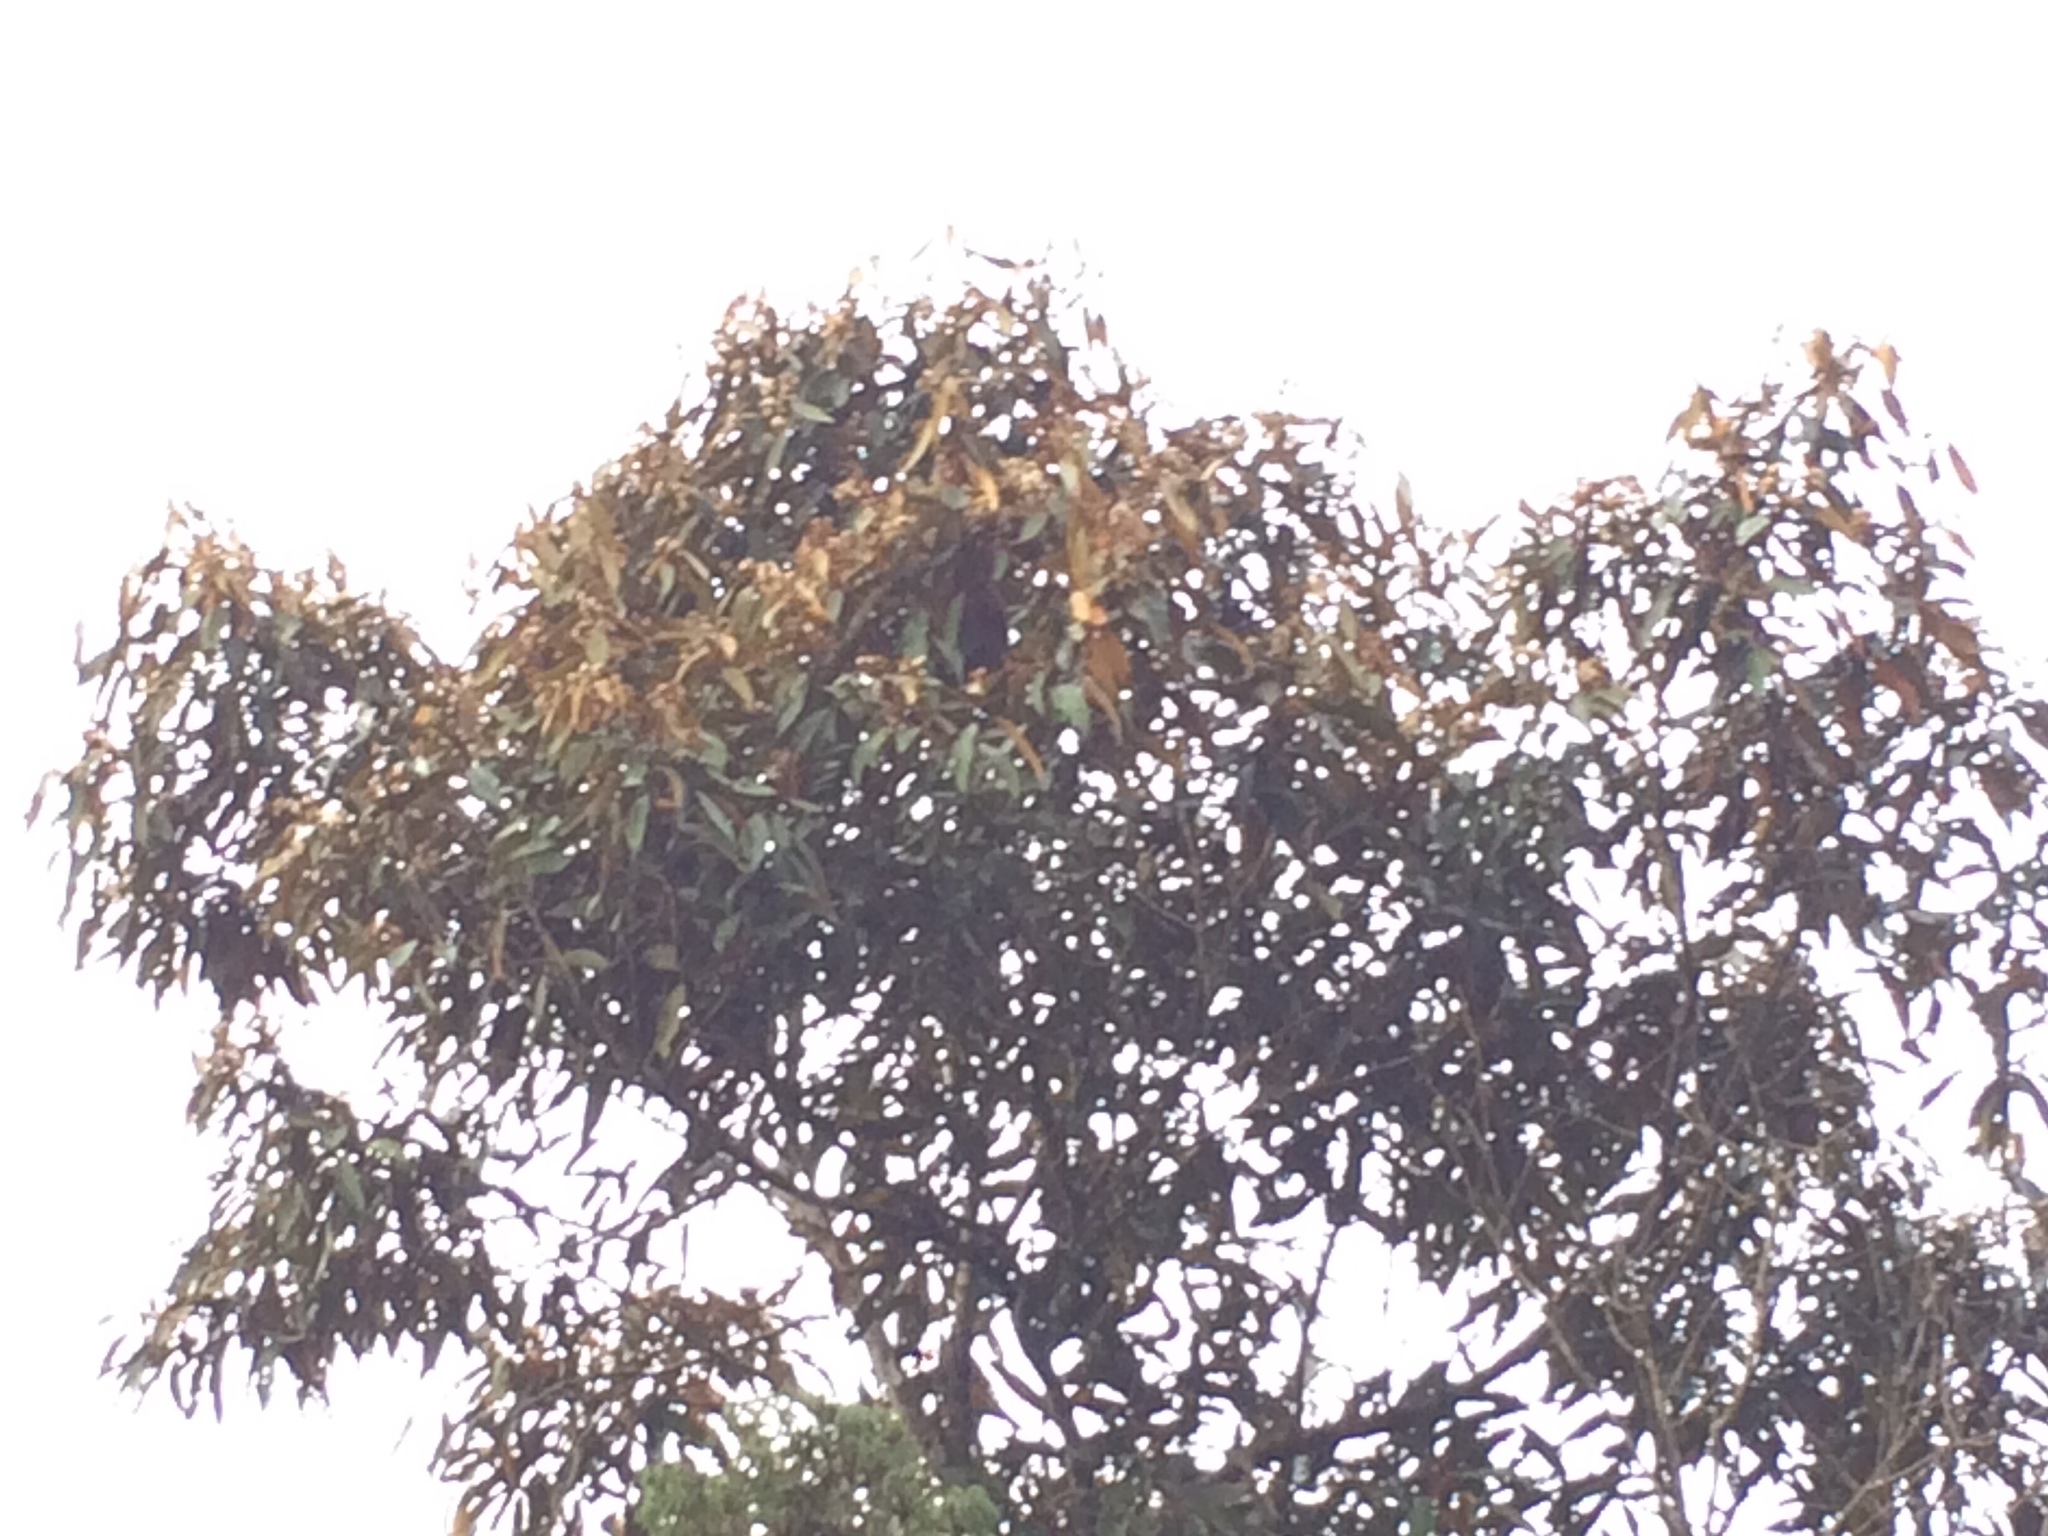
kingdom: Plantae
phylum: Tracheophyta
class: Magnoliopsida
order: Laurales
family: Lauraceae
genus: Nectandra
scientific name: Nectandra oppositifolia
